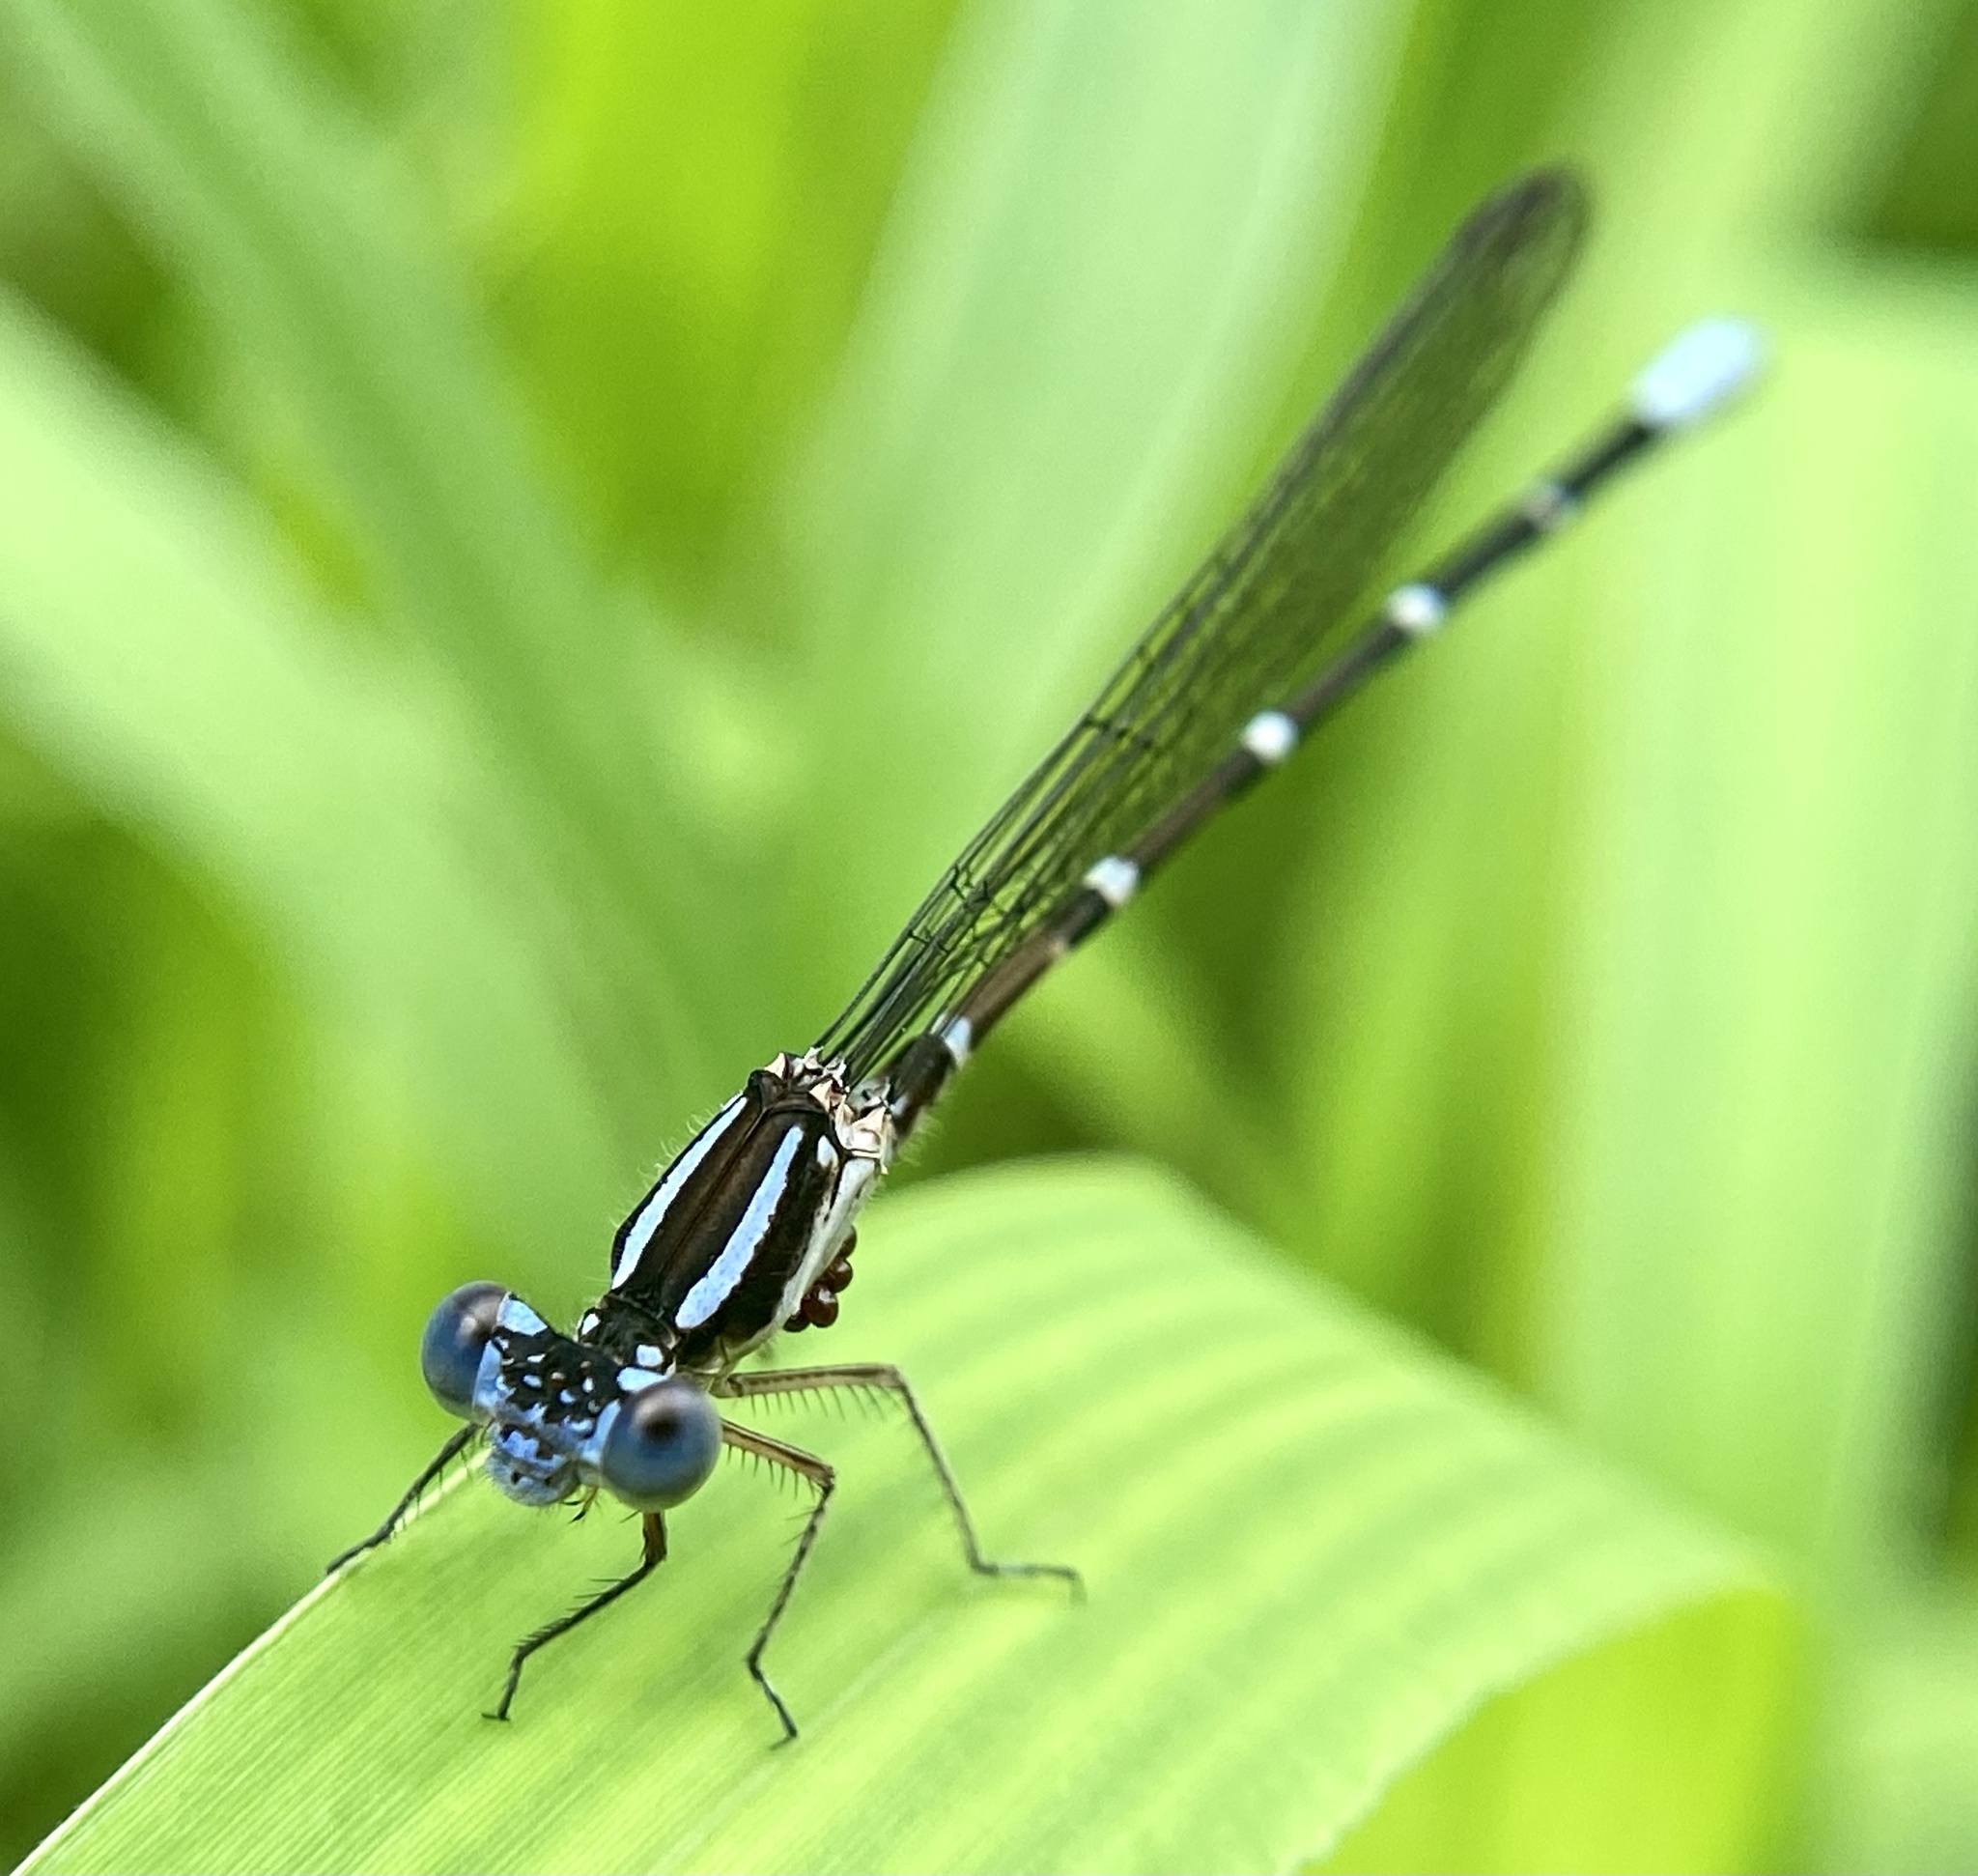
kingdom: Animalia
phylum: Arthropoda
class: Insecta
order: Odonata
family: Coenagrionidae
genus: Argia
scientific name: Argia sedula
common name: Blue-ringed dancer
